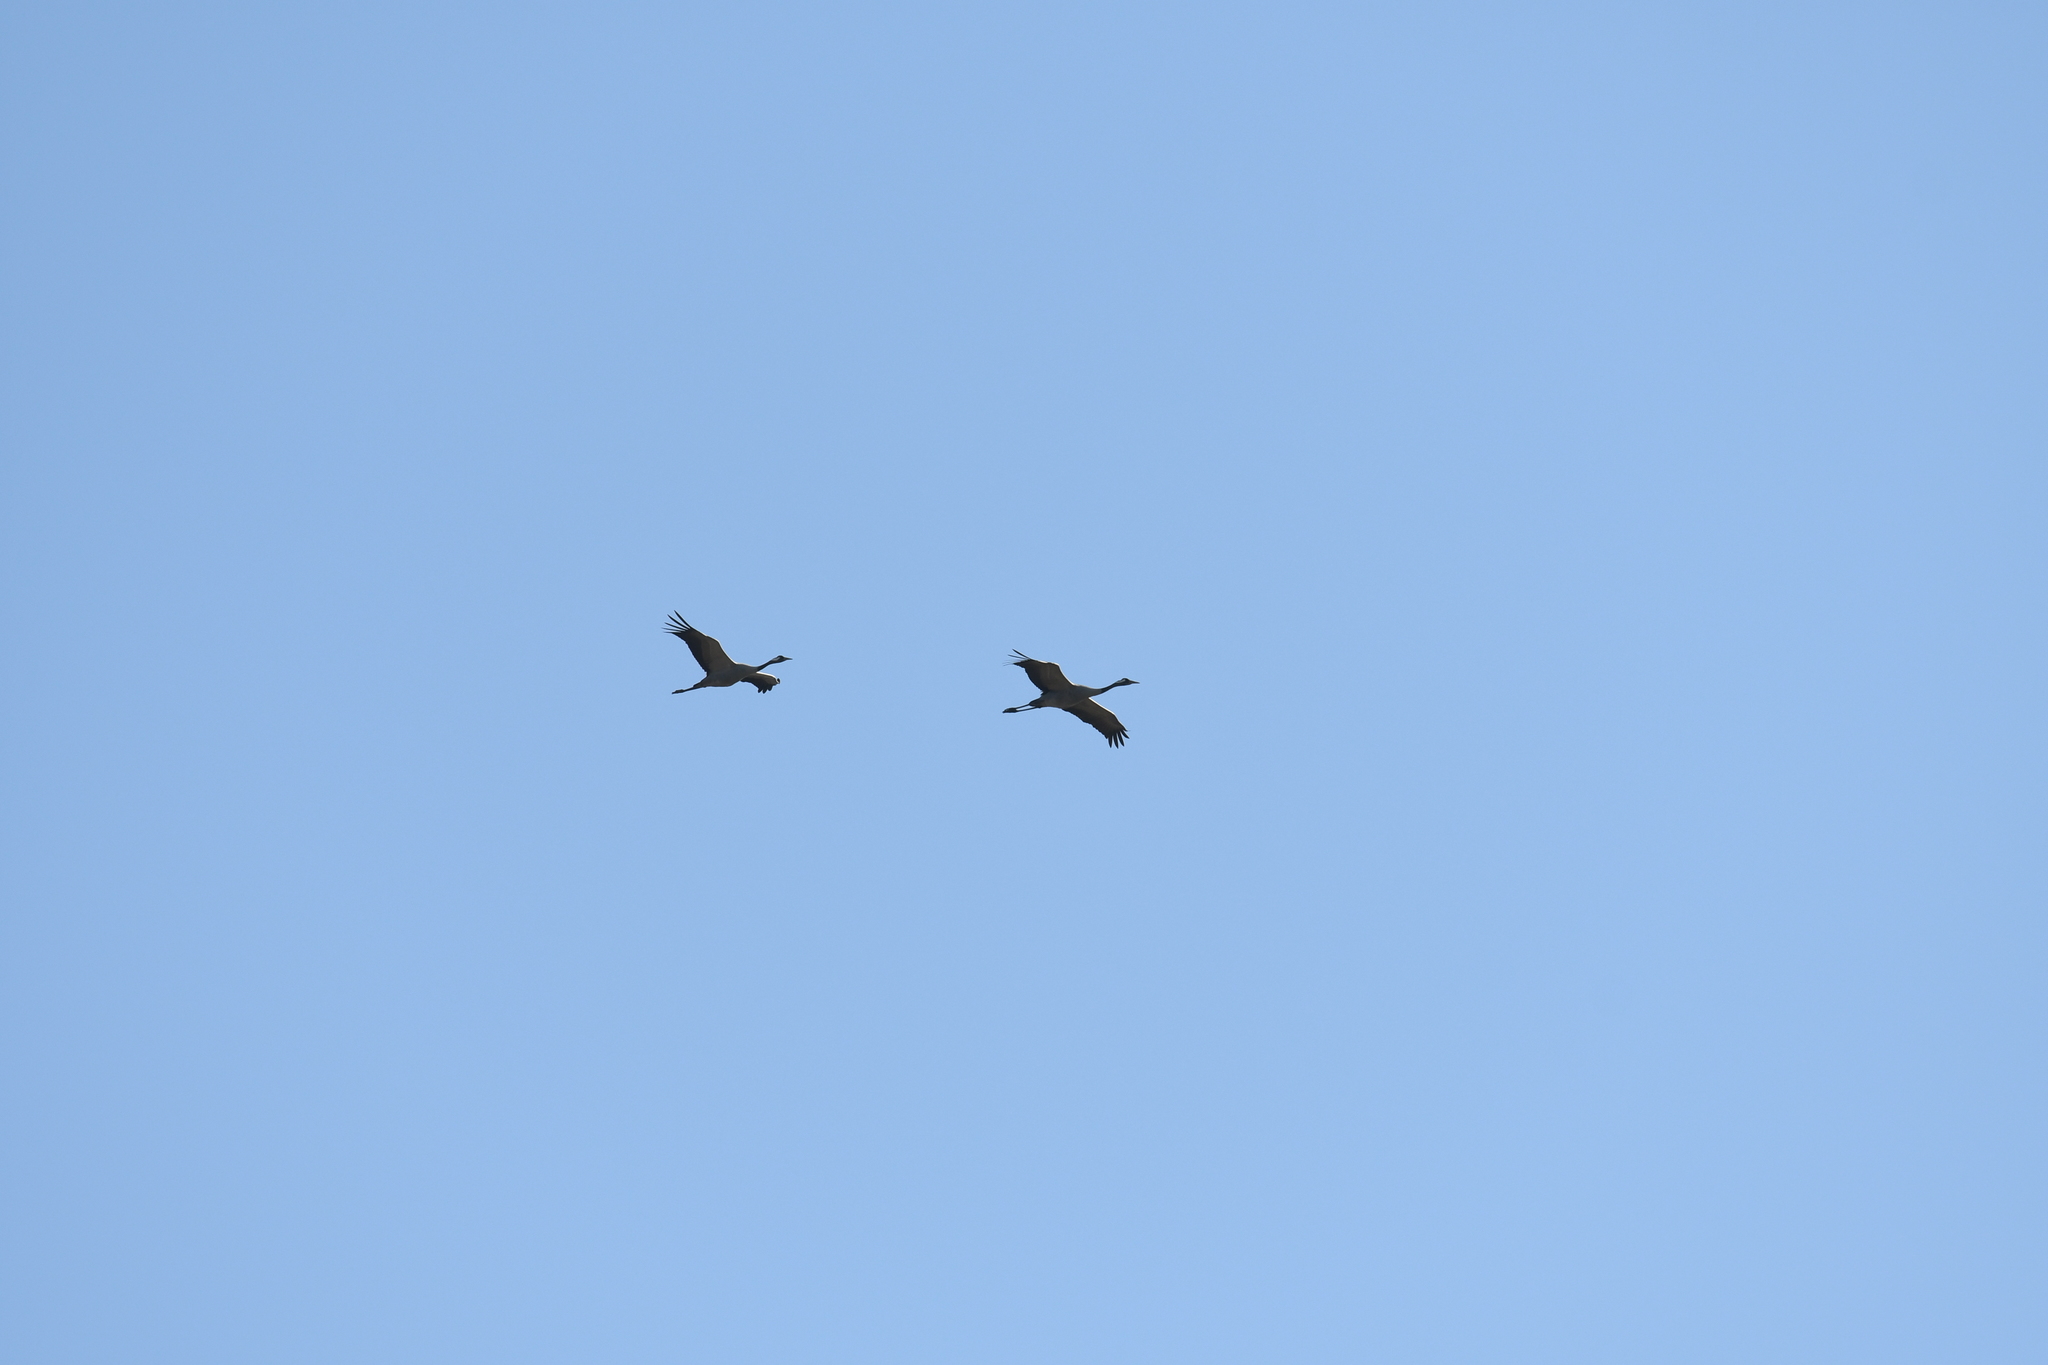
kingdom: Animalia
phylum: Chordata
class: Aves
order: Gruiformes
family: Gruidae
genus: Grus
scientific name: Grus grus
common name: Common crane
